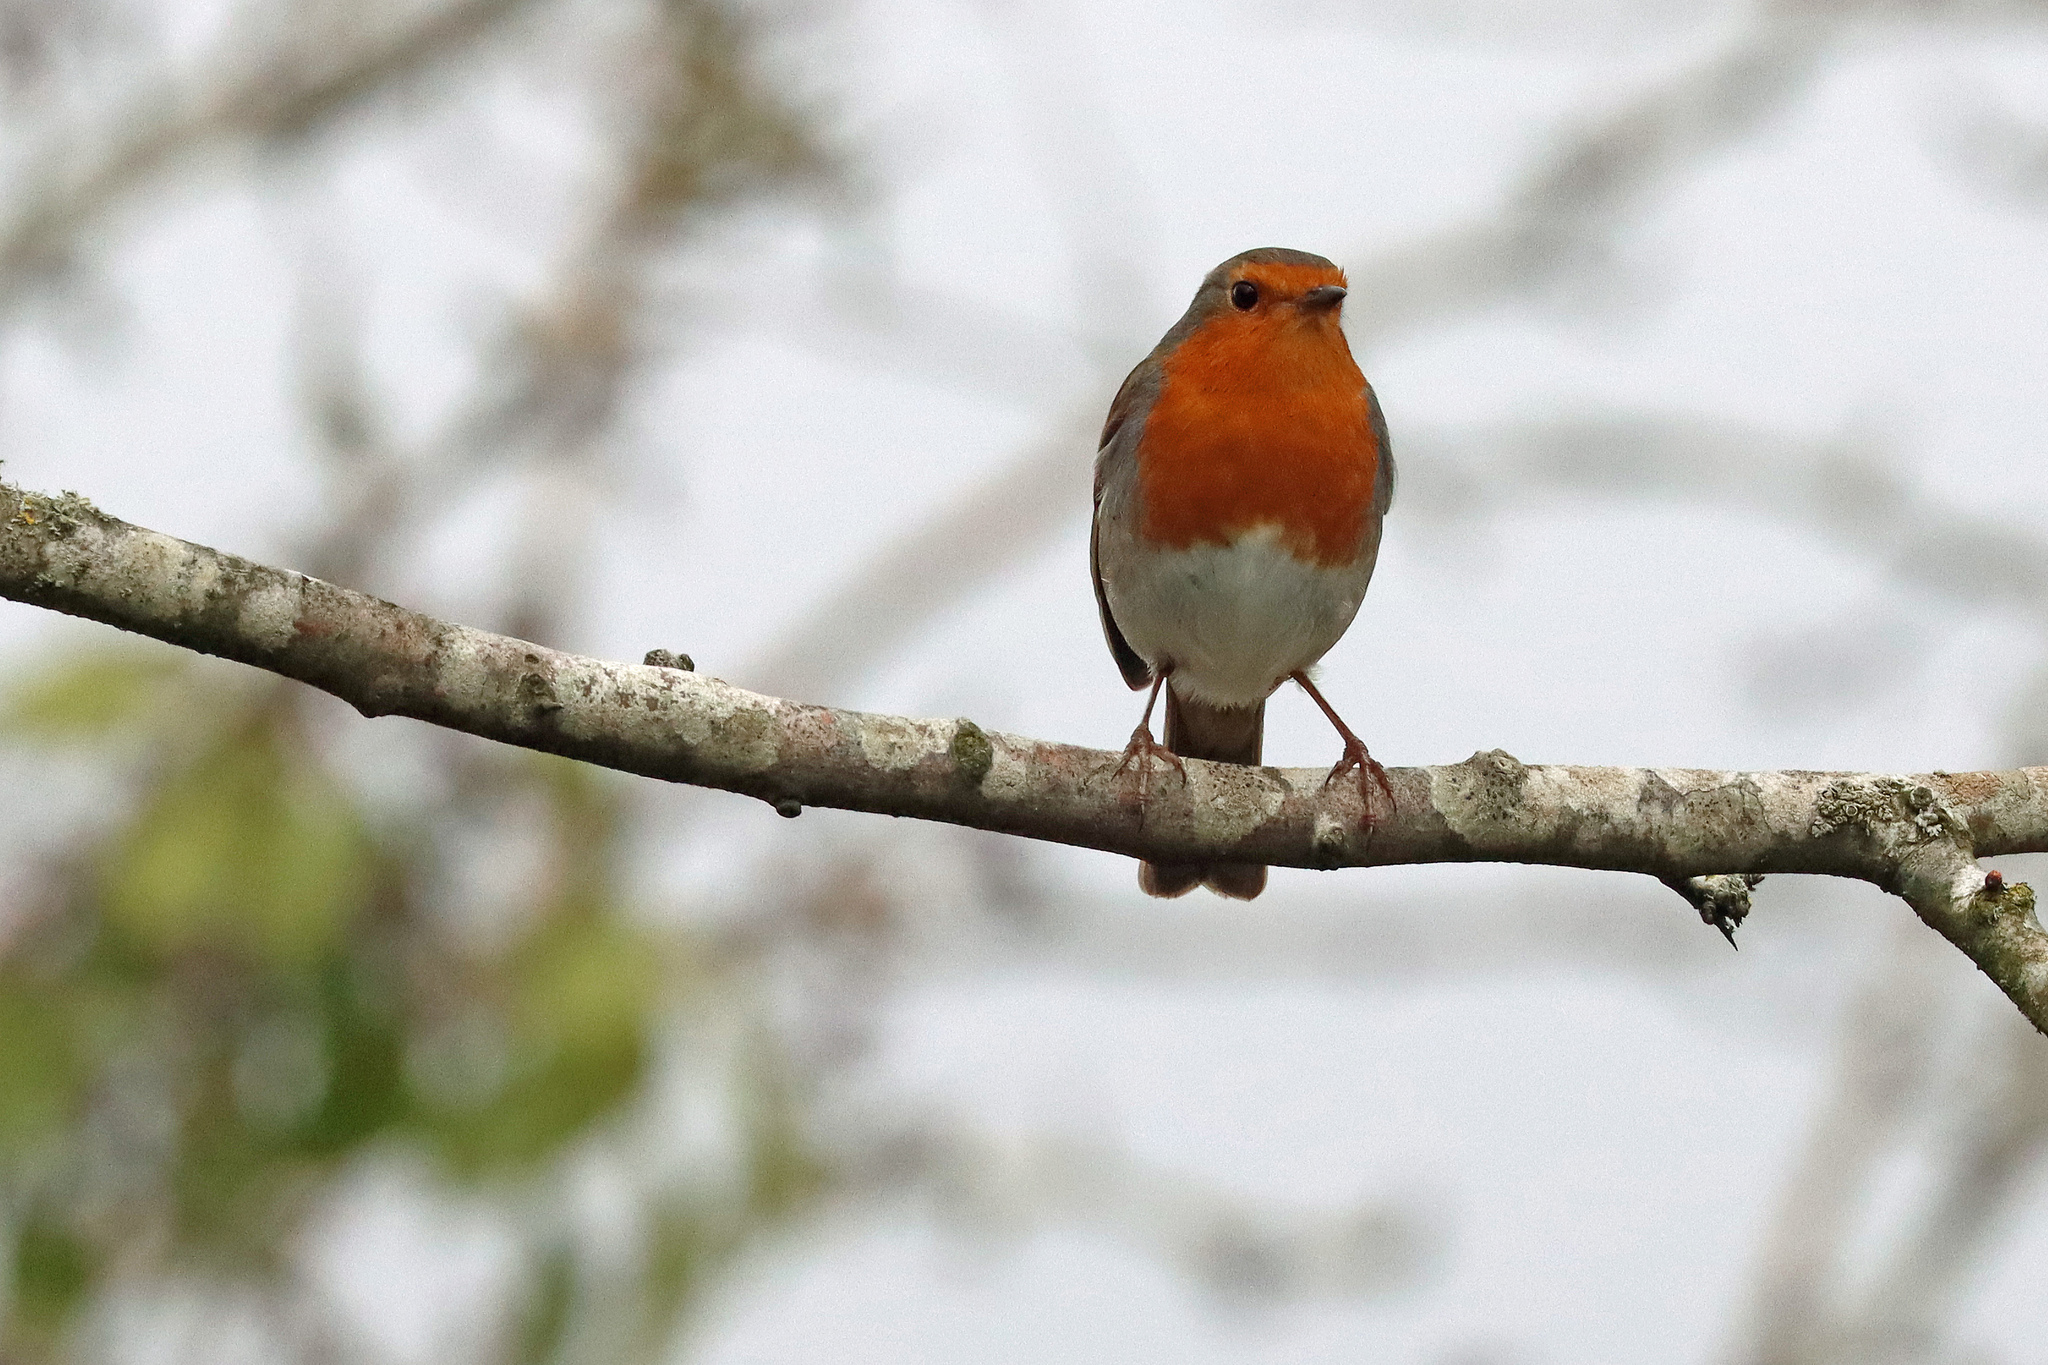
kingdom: Animalia
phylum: Chordata
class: Aves
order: Passeriformes
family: Muscicapidae
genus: Erithacus
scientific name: Erithacus rubecula
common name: European robin
